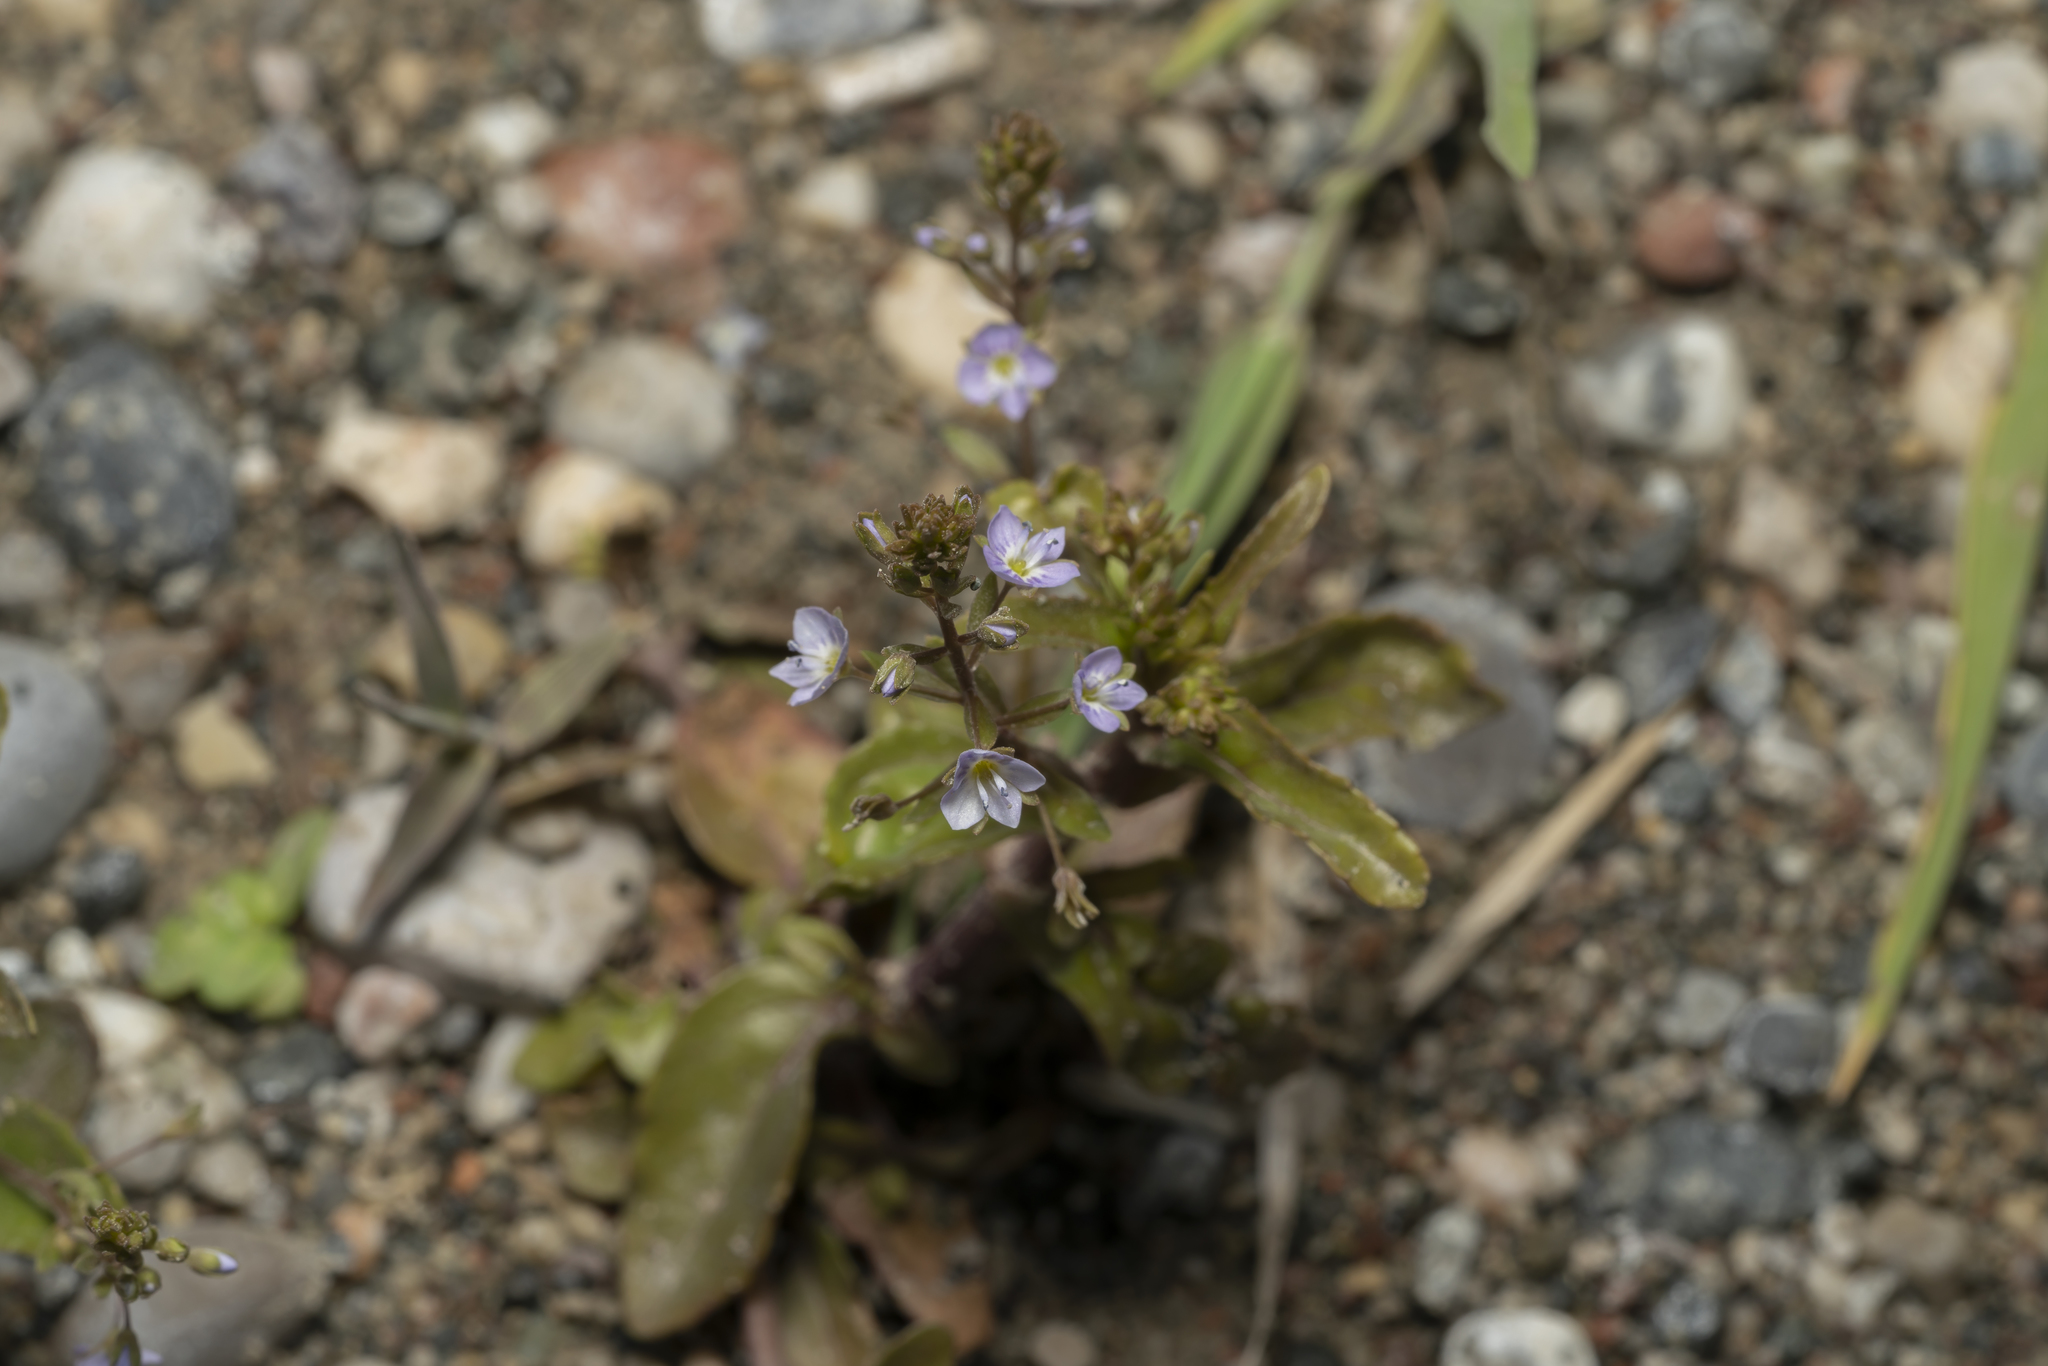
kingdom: Plantae
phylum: Tracheophyta
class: Magnoliopsida
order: Lamiales
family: Plantaginaceae
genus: Veronica
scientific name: Veronica anagallis-aquatica
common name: Water speedwell
